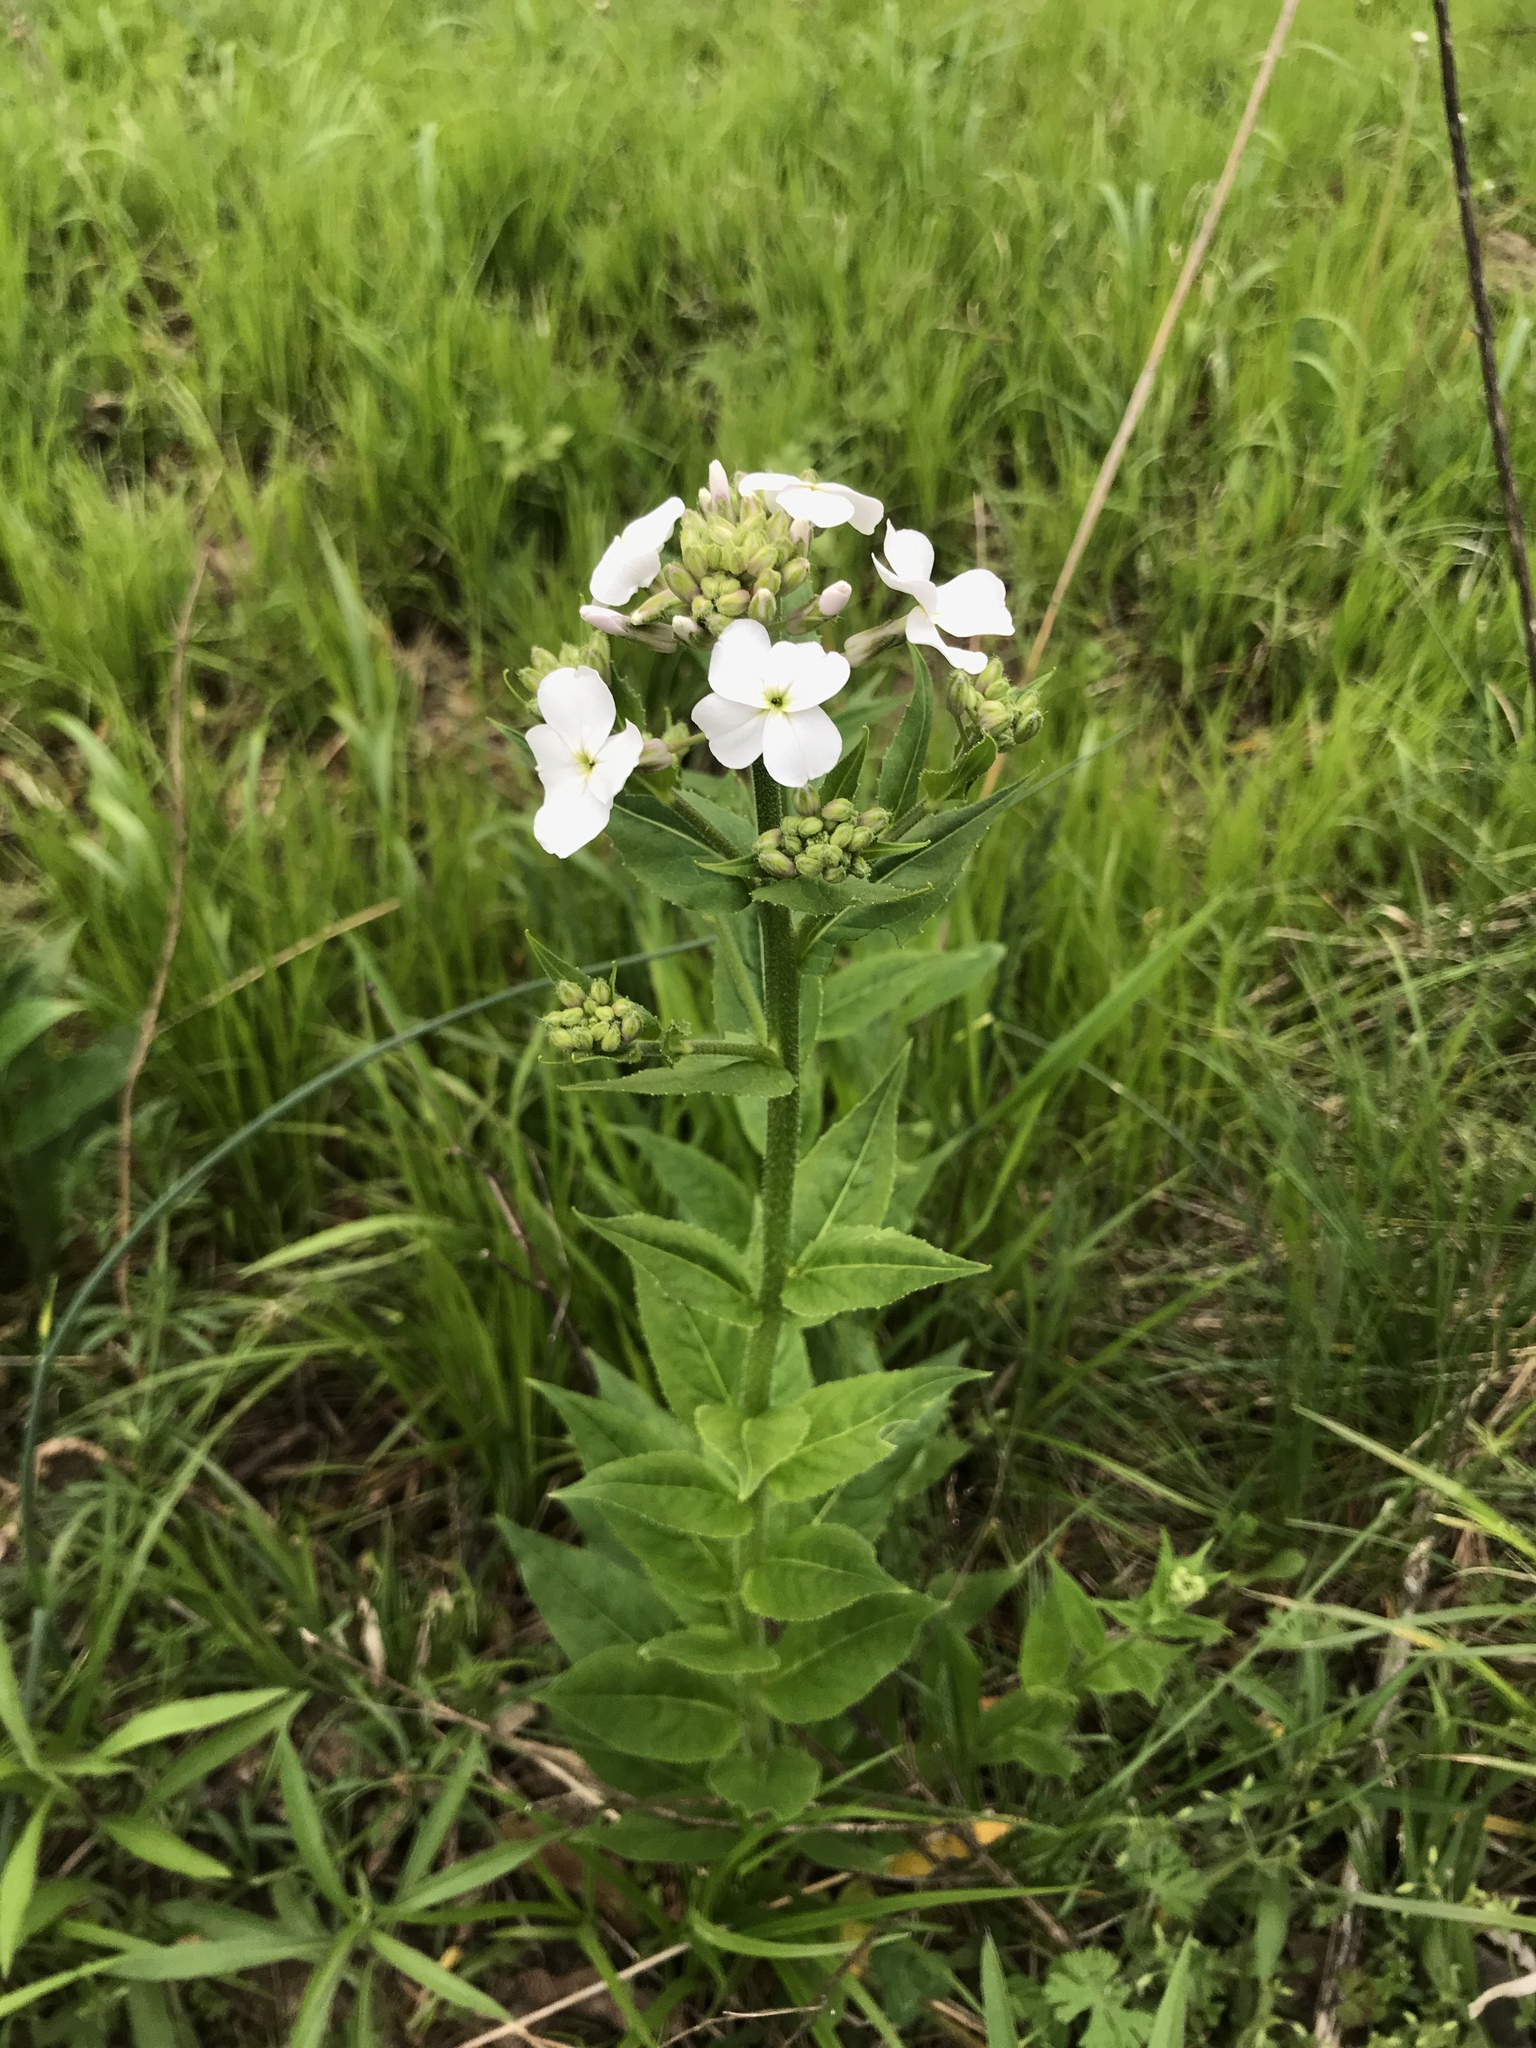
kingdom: Plantae
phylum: Tracheophyta
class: Magnoliopsida
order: Brassicales
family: Brassicaceae
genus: Hesperis
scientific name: Hesperis matronalis
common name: Dame's-violet
